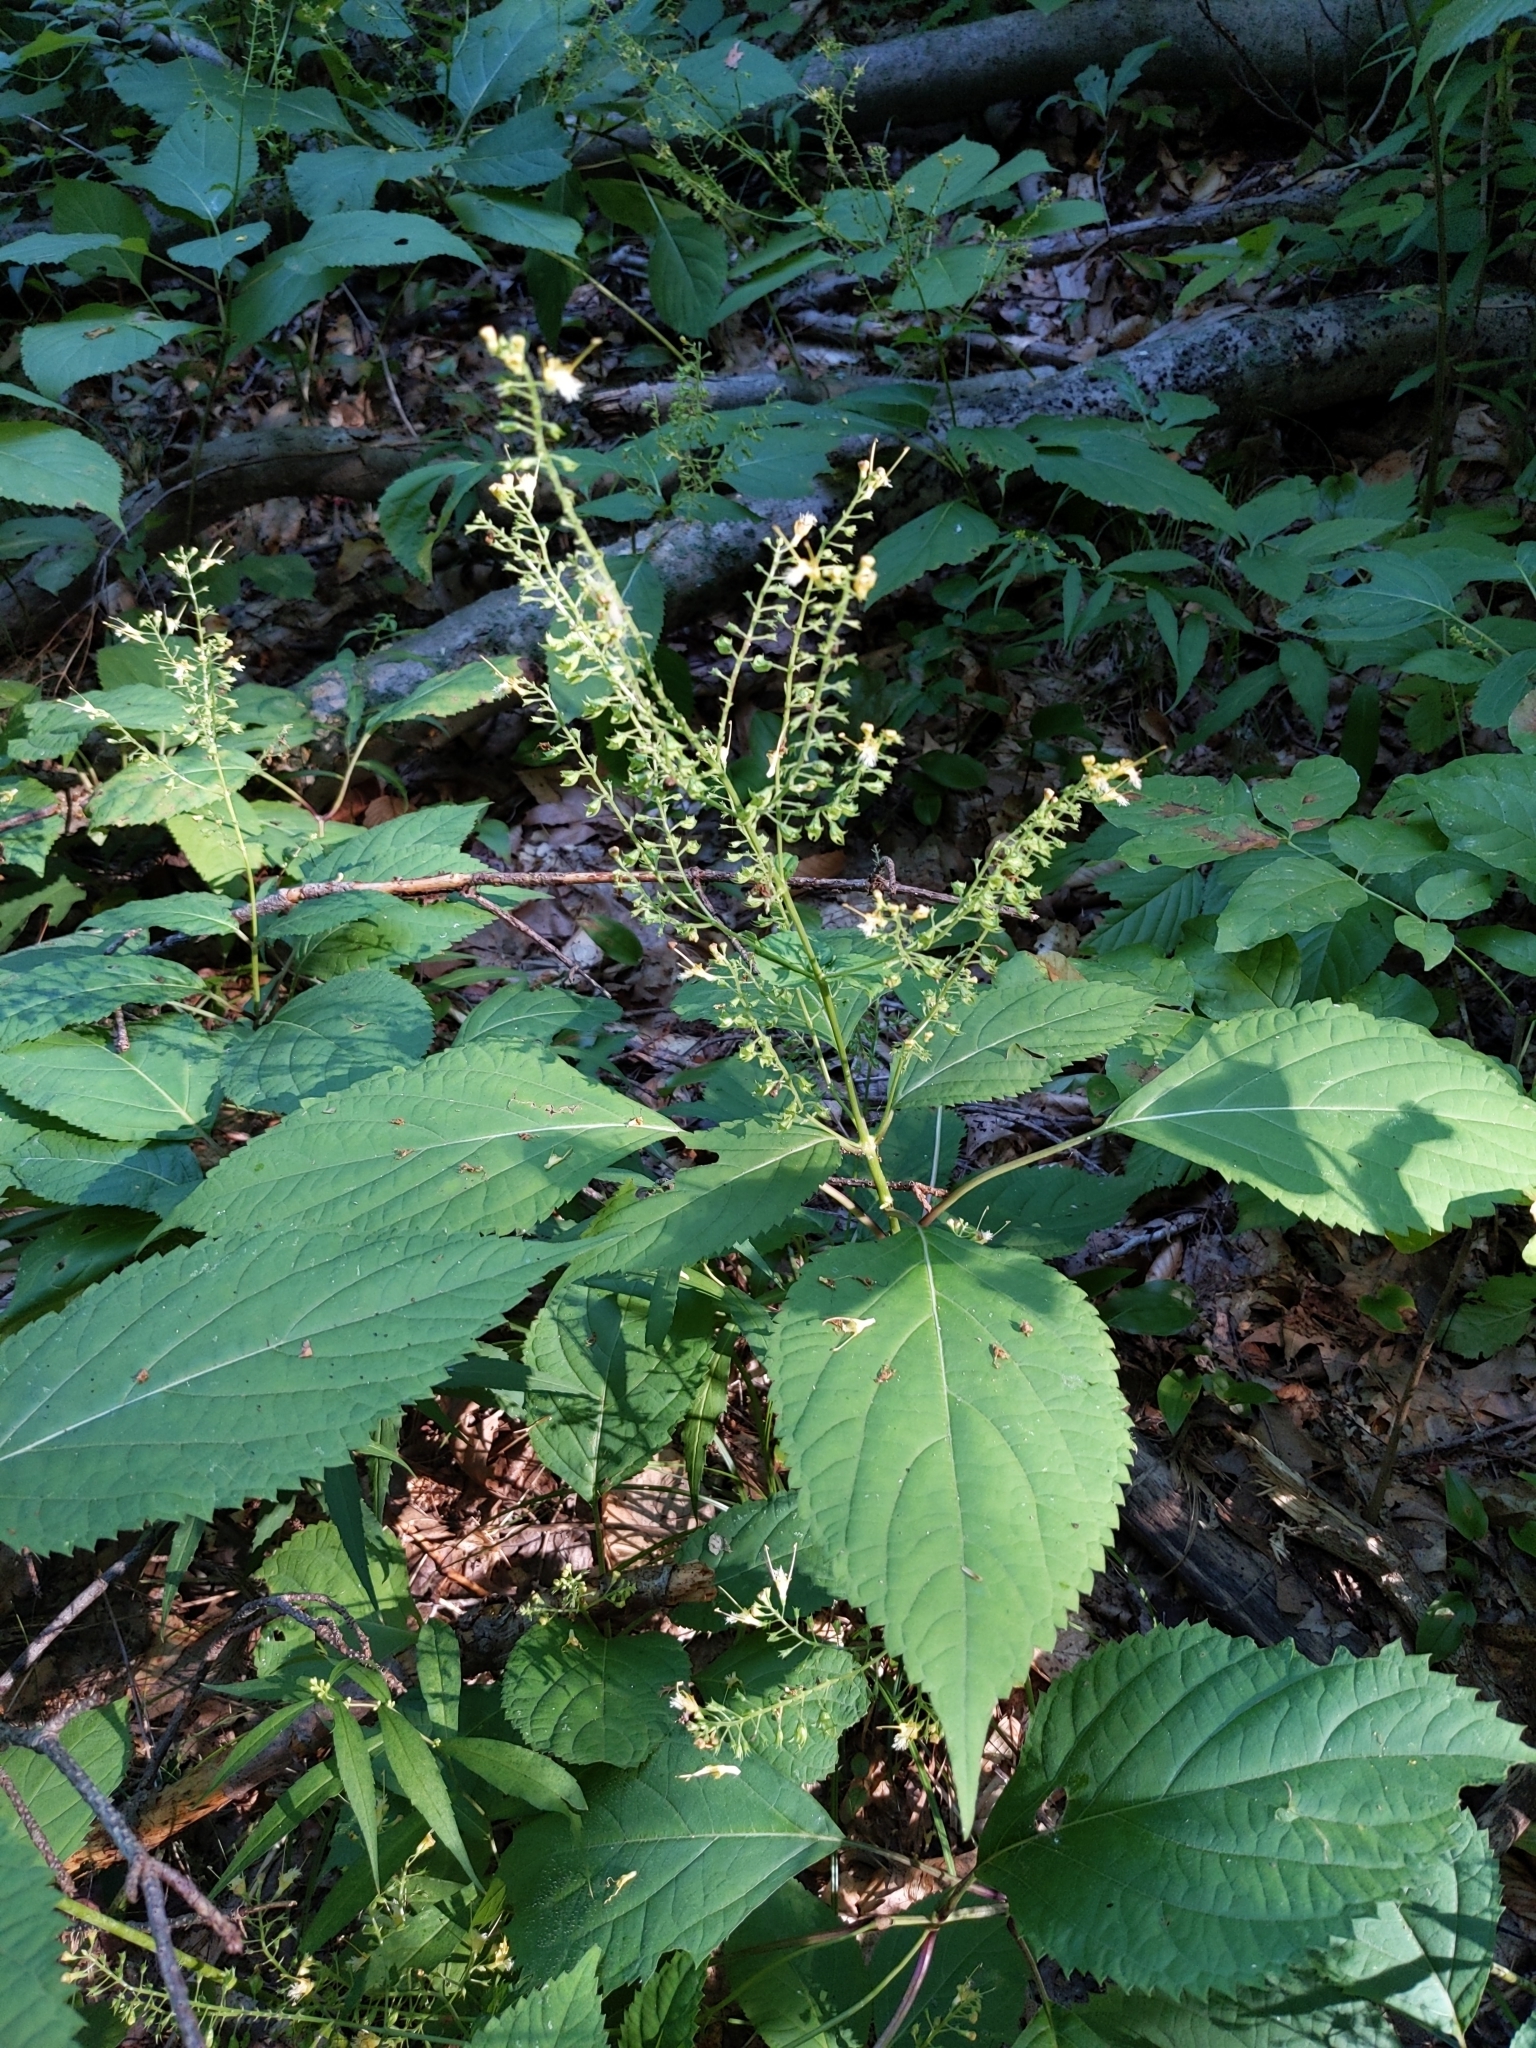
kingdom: Plantae
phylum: Tracheophyta
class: Magnoliopsida
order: Lamiales
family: Lamiaceae
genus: Collinsonia
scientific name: Collinsonia canadensis
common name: Northern horsebalm
